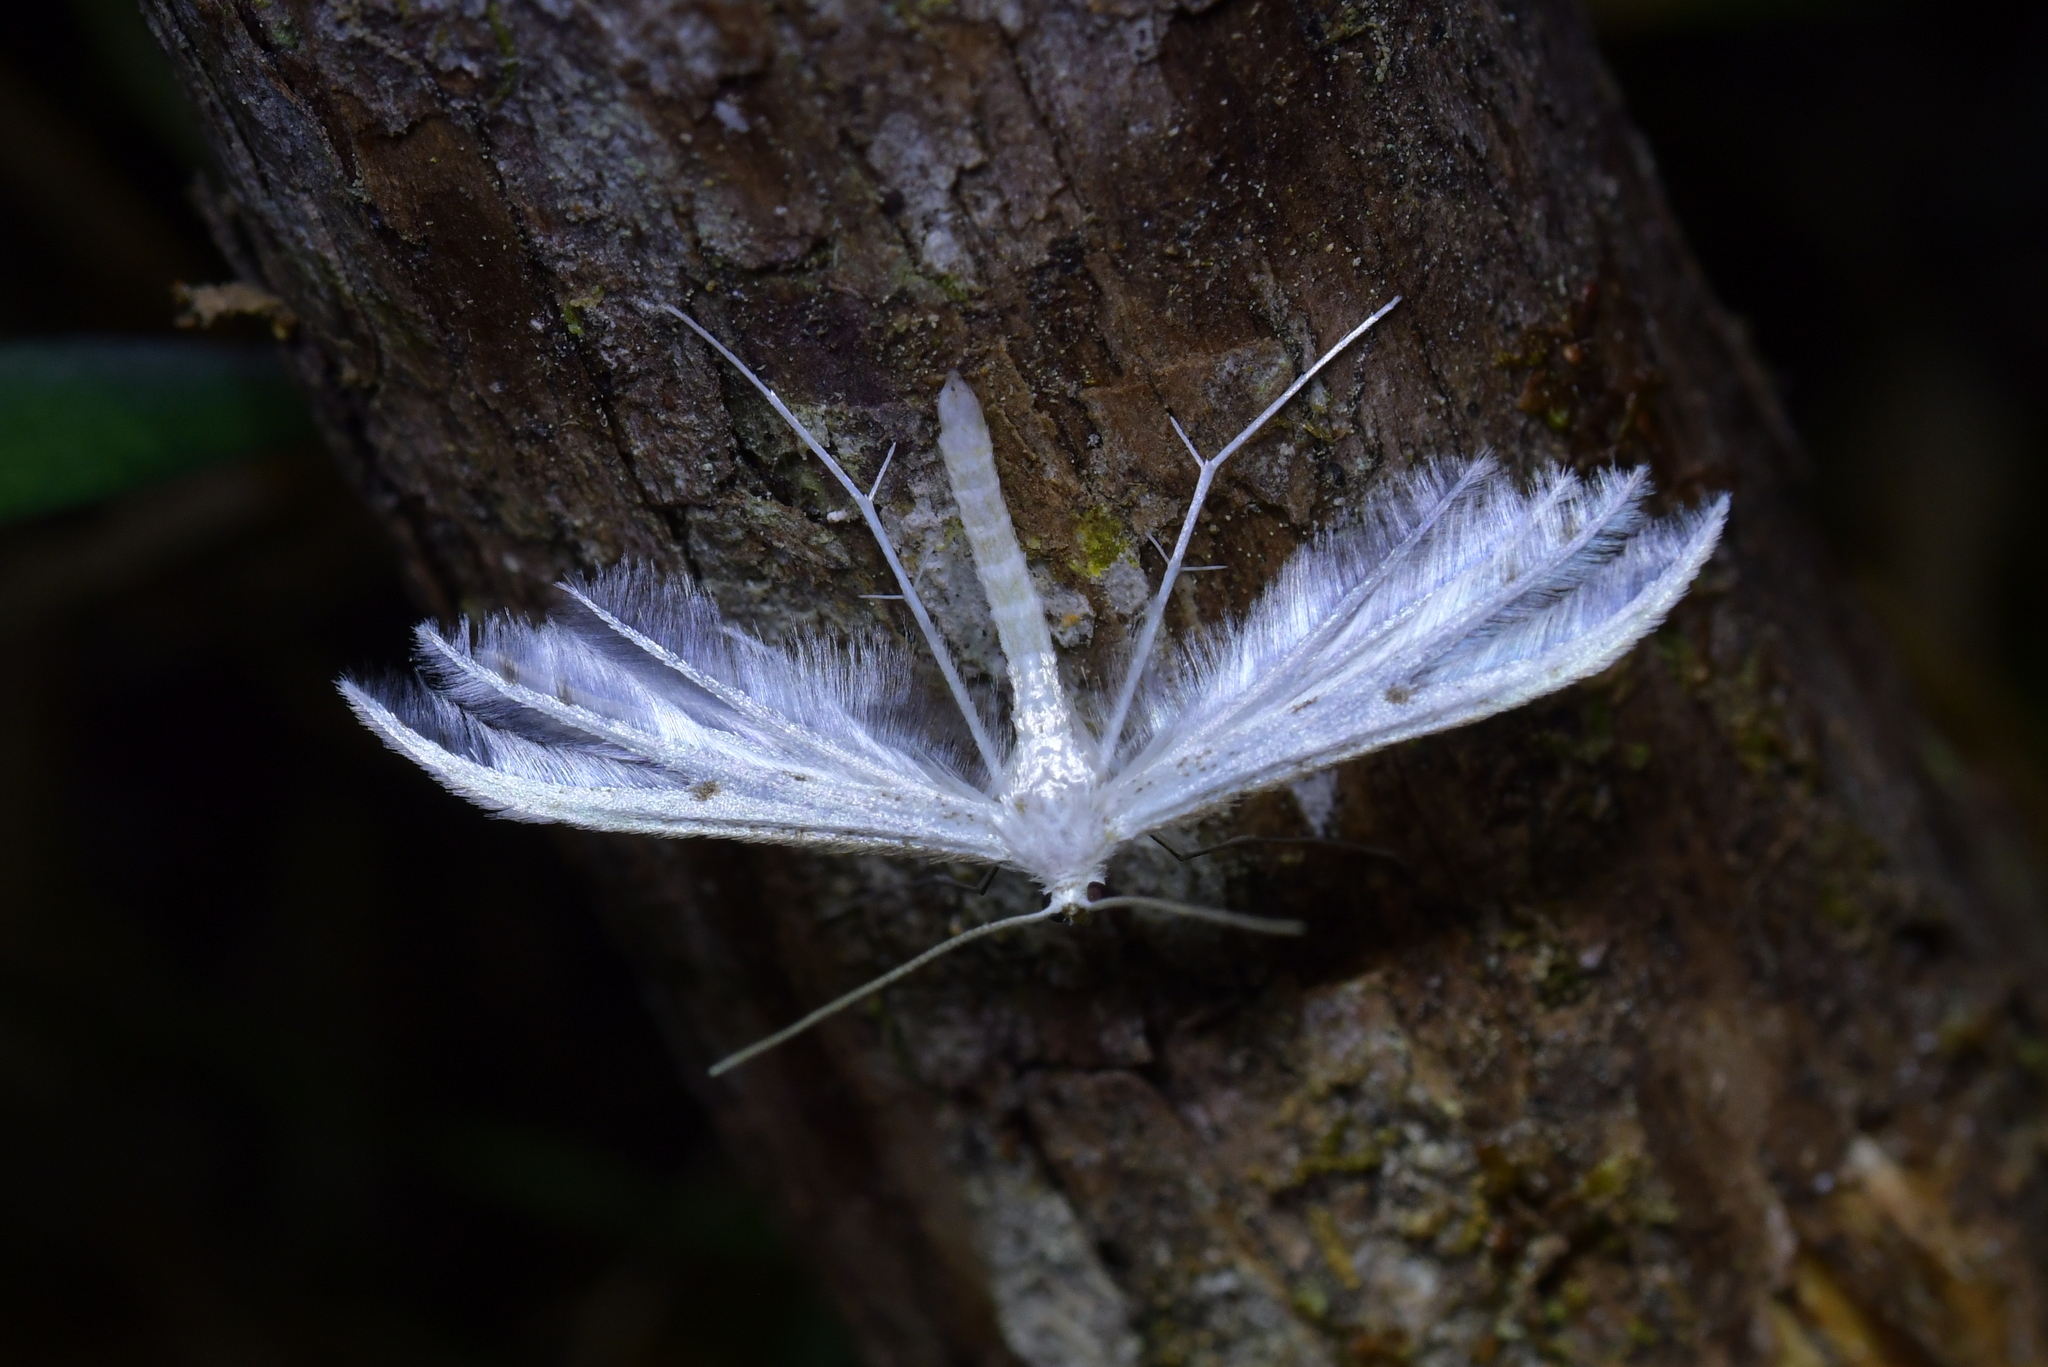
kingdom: Animalia
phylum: Arthropoda
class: Insecta
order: Lepidoptera
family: Pterophoridae
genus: Pterophorus
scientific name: Pterophorus monospilalis
